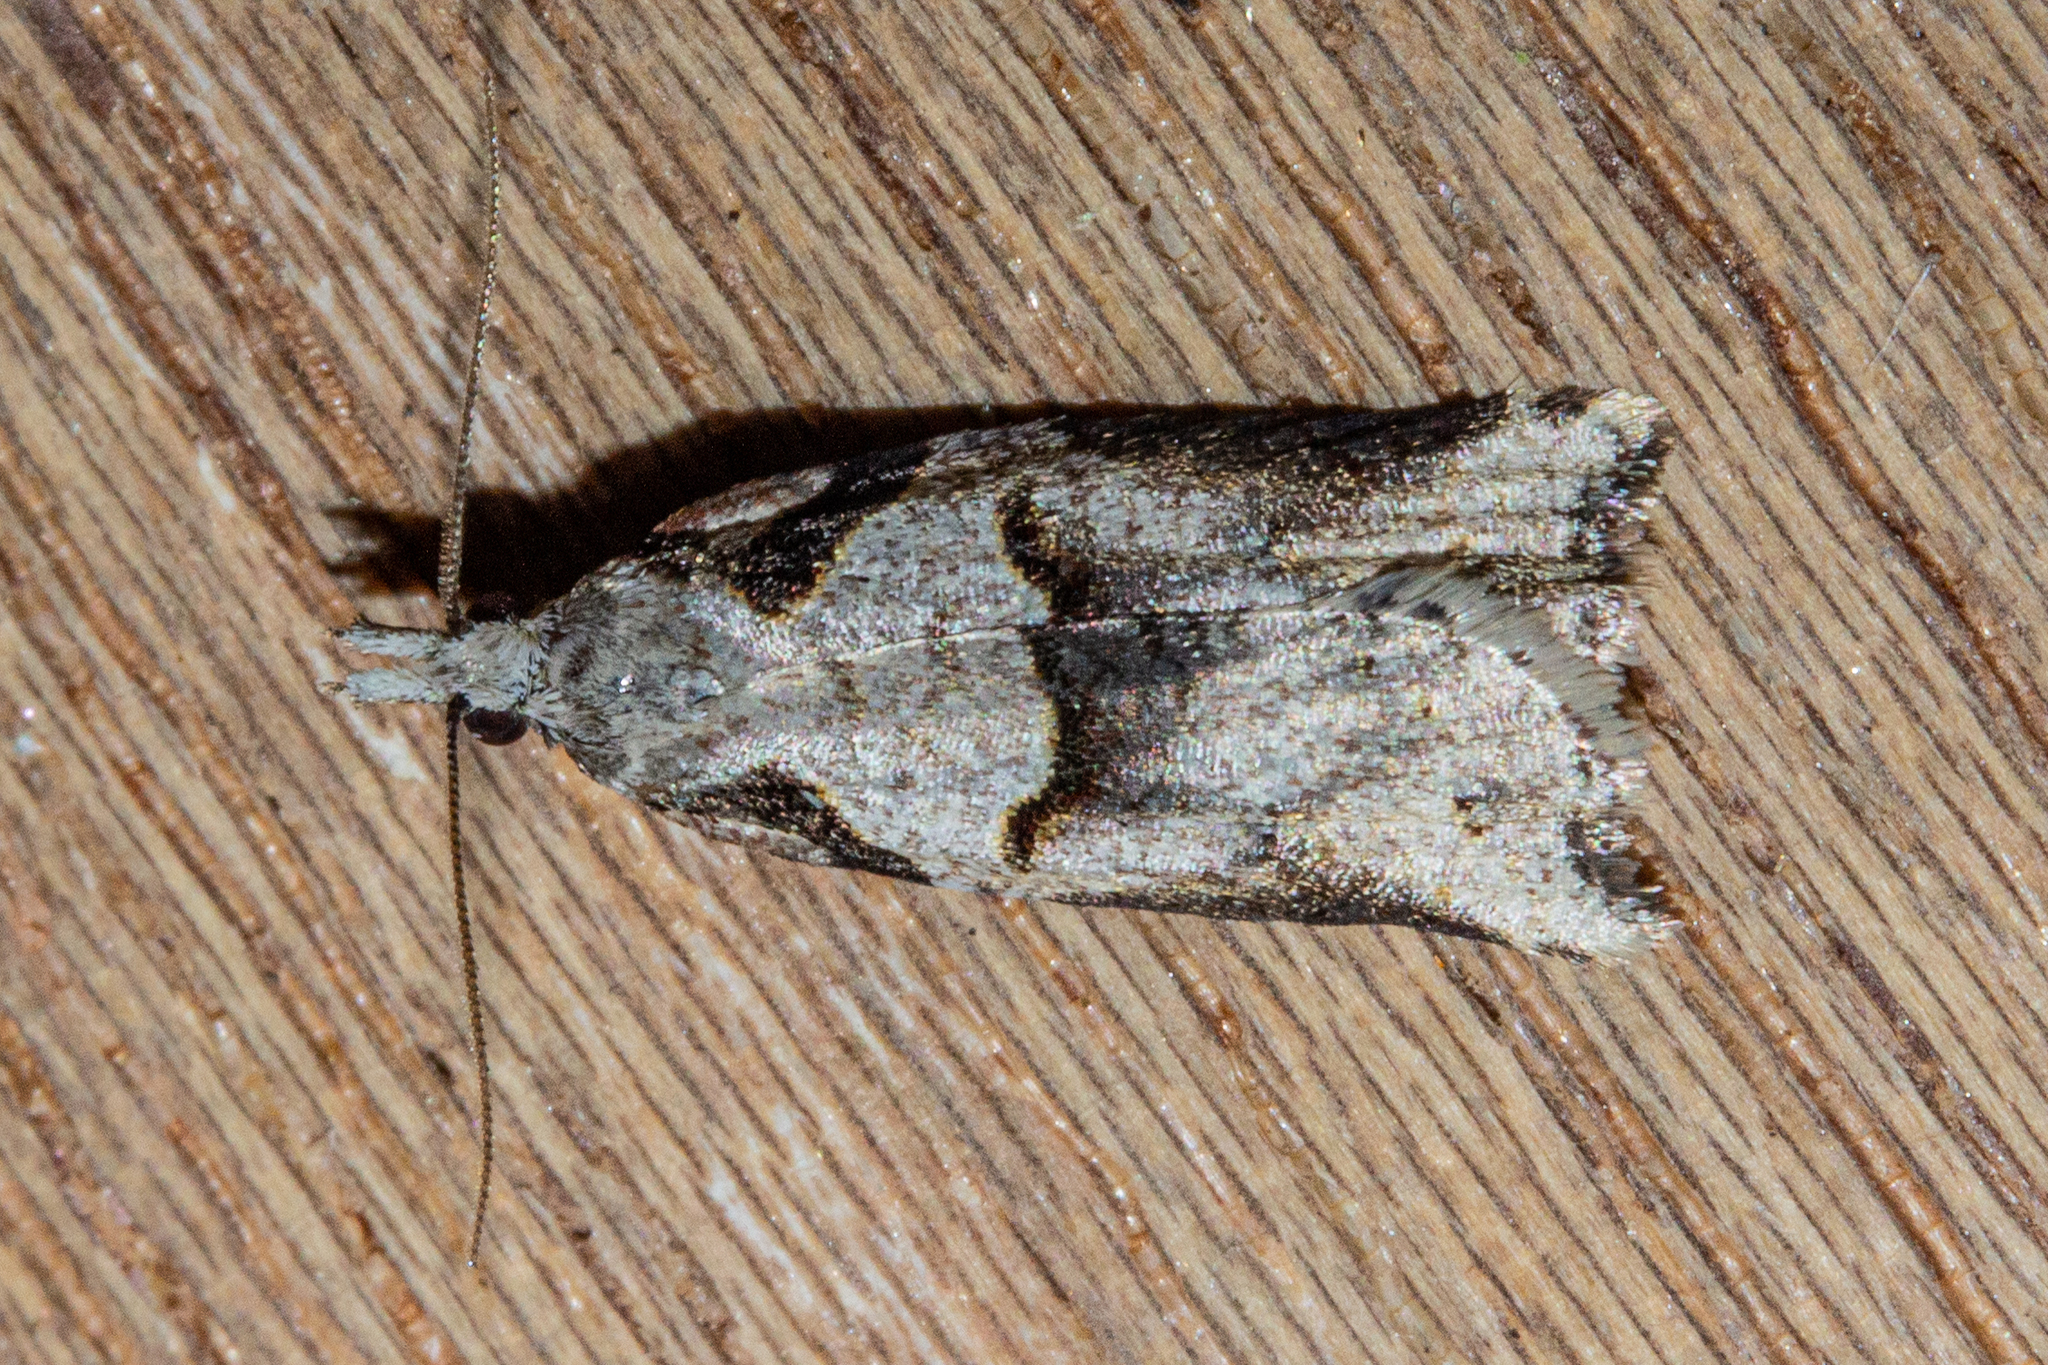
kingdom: Animalia
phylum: Arthropoda
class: Insecta
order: Lepidoptera
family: Tortricidae
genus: Harmologa
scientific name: Harmologa amplexana
